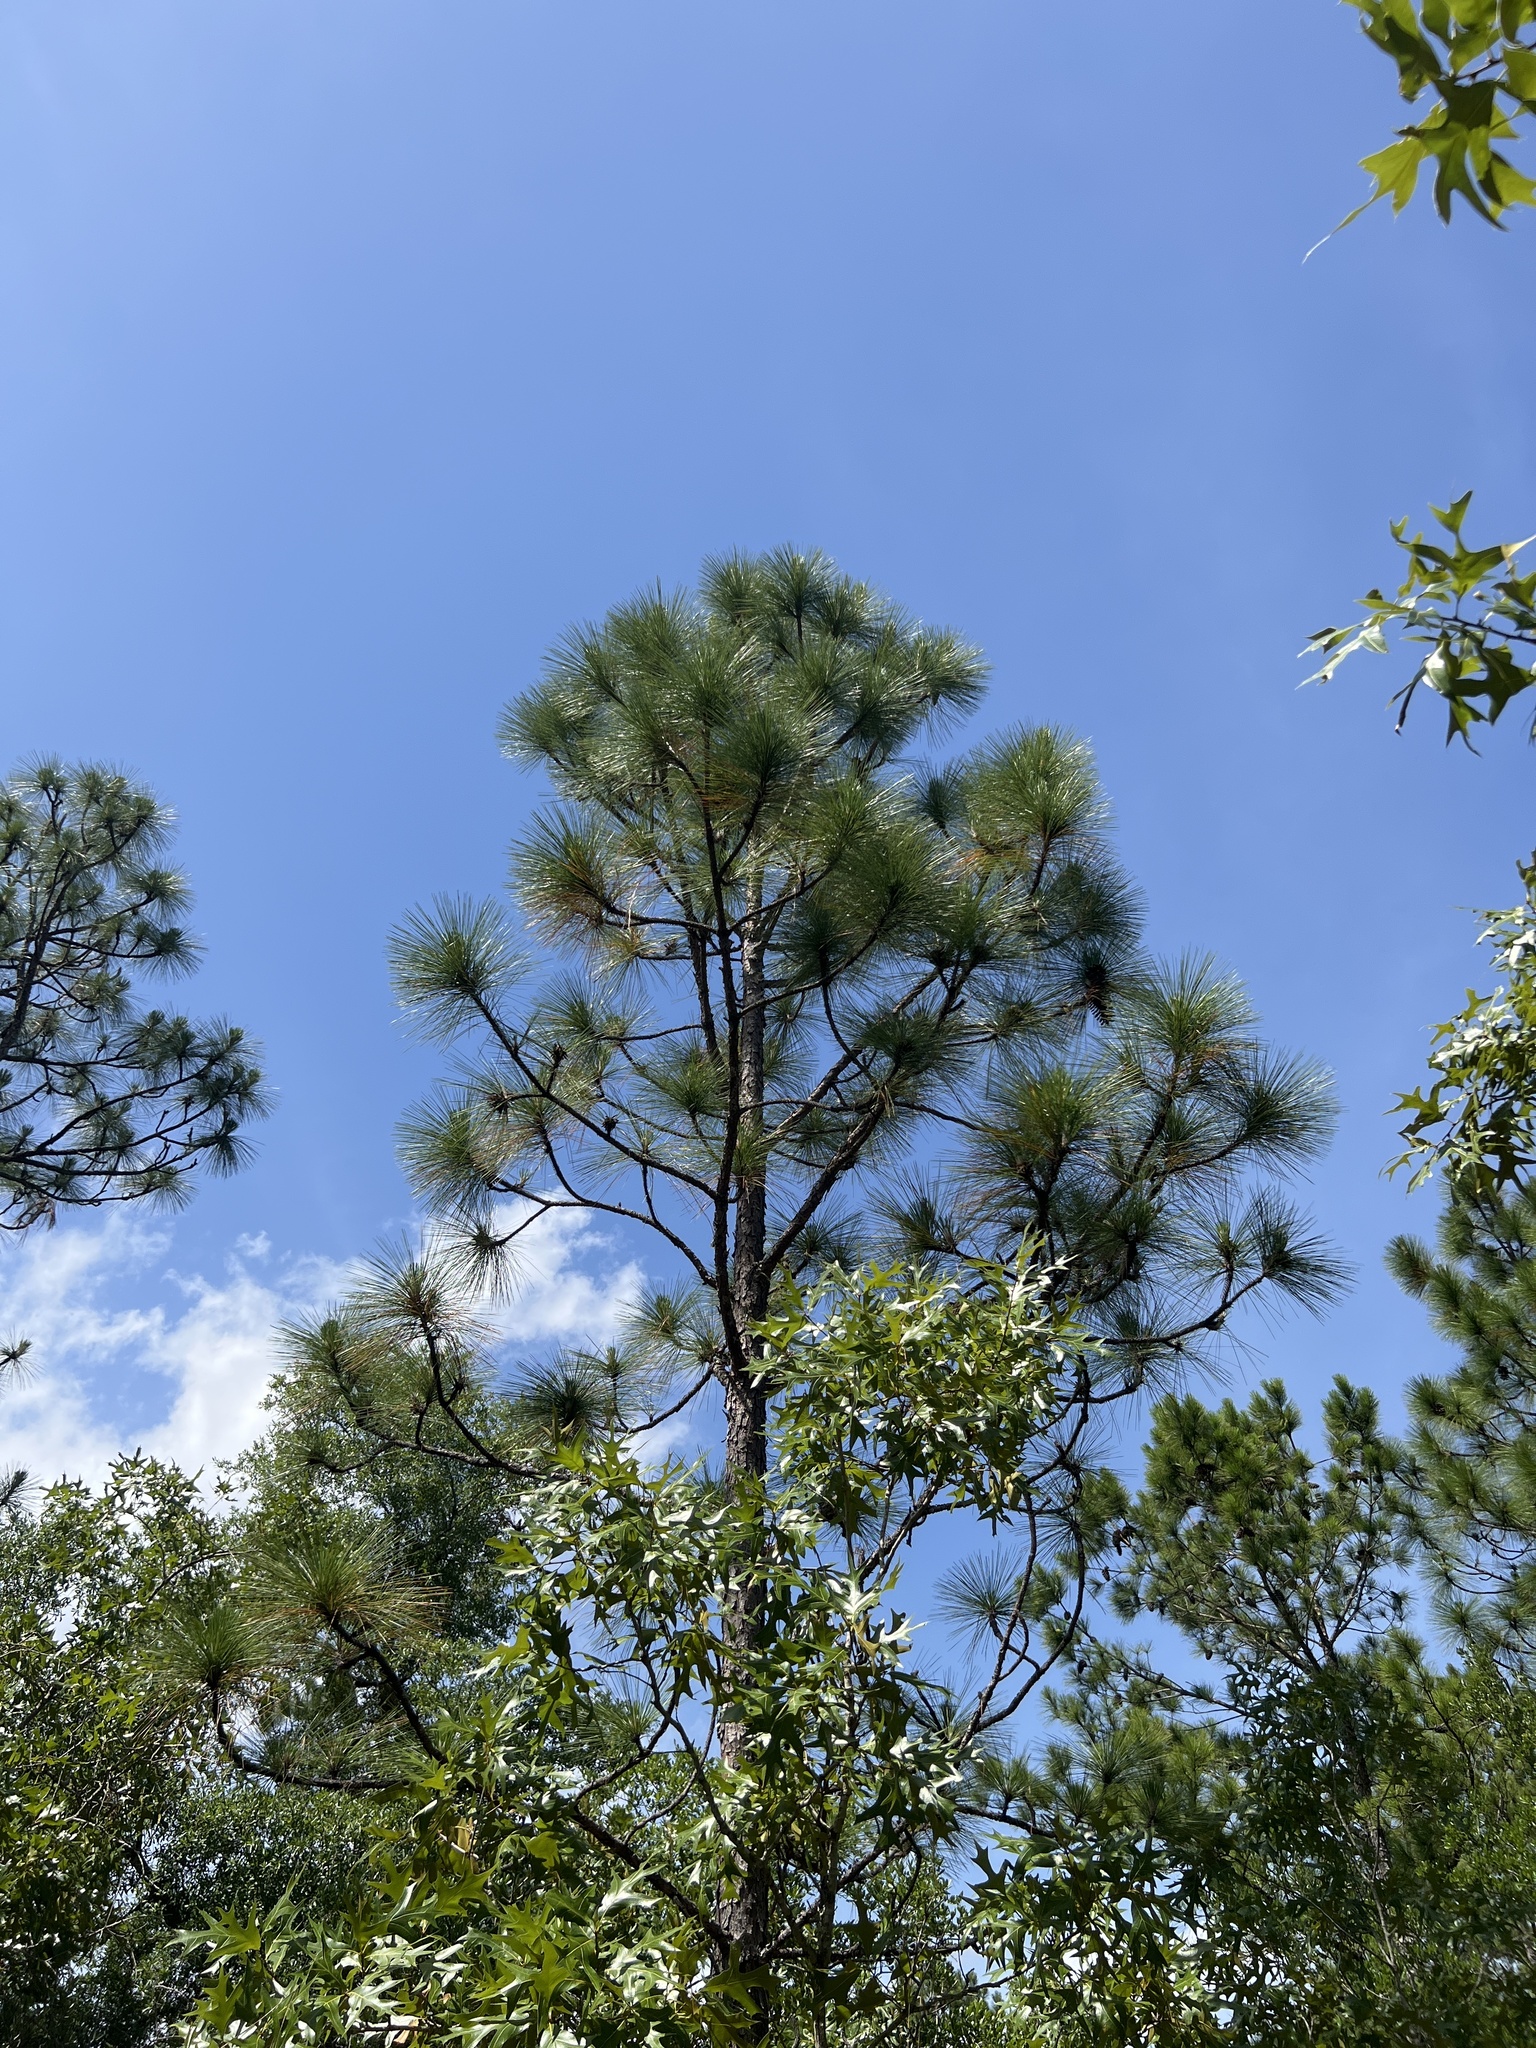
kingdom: Plantae
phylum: Tracheophyta
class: Pinopsida
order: Pinales
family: Pinaceae
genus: Pinus
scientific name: Pinus palustris
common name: Longleaf pine
